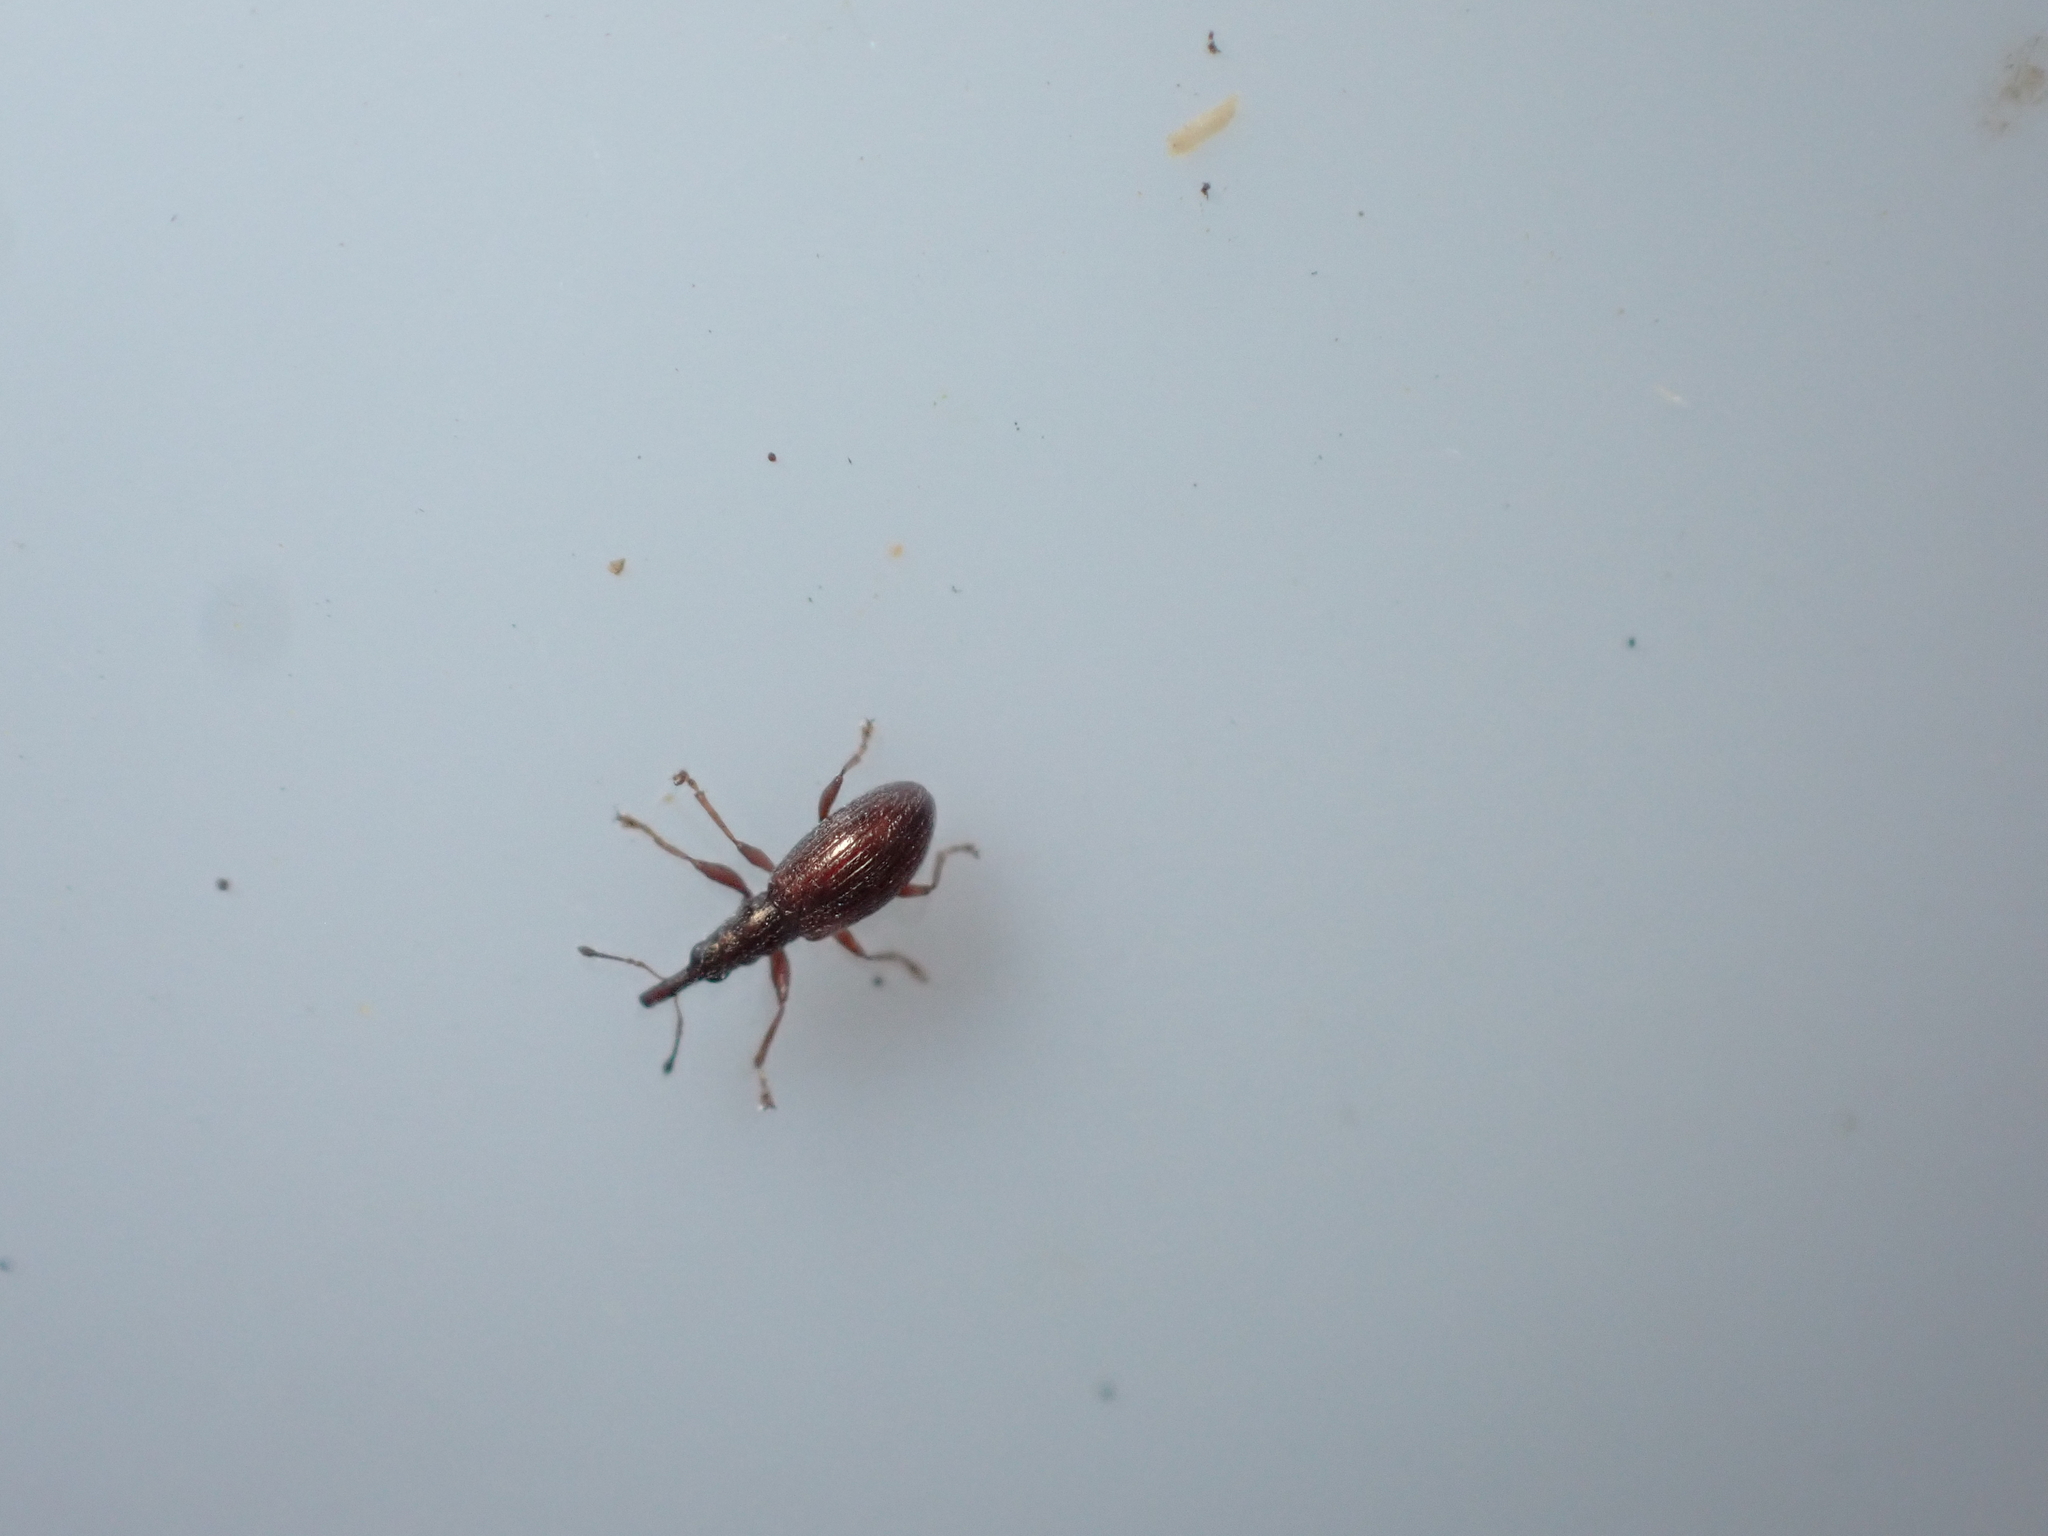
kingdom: Animalia
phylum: Arthropoda
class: Insecta
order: Coleoptera
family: Brentidae
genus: Neocyba
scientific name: Neocyba metrosideros
